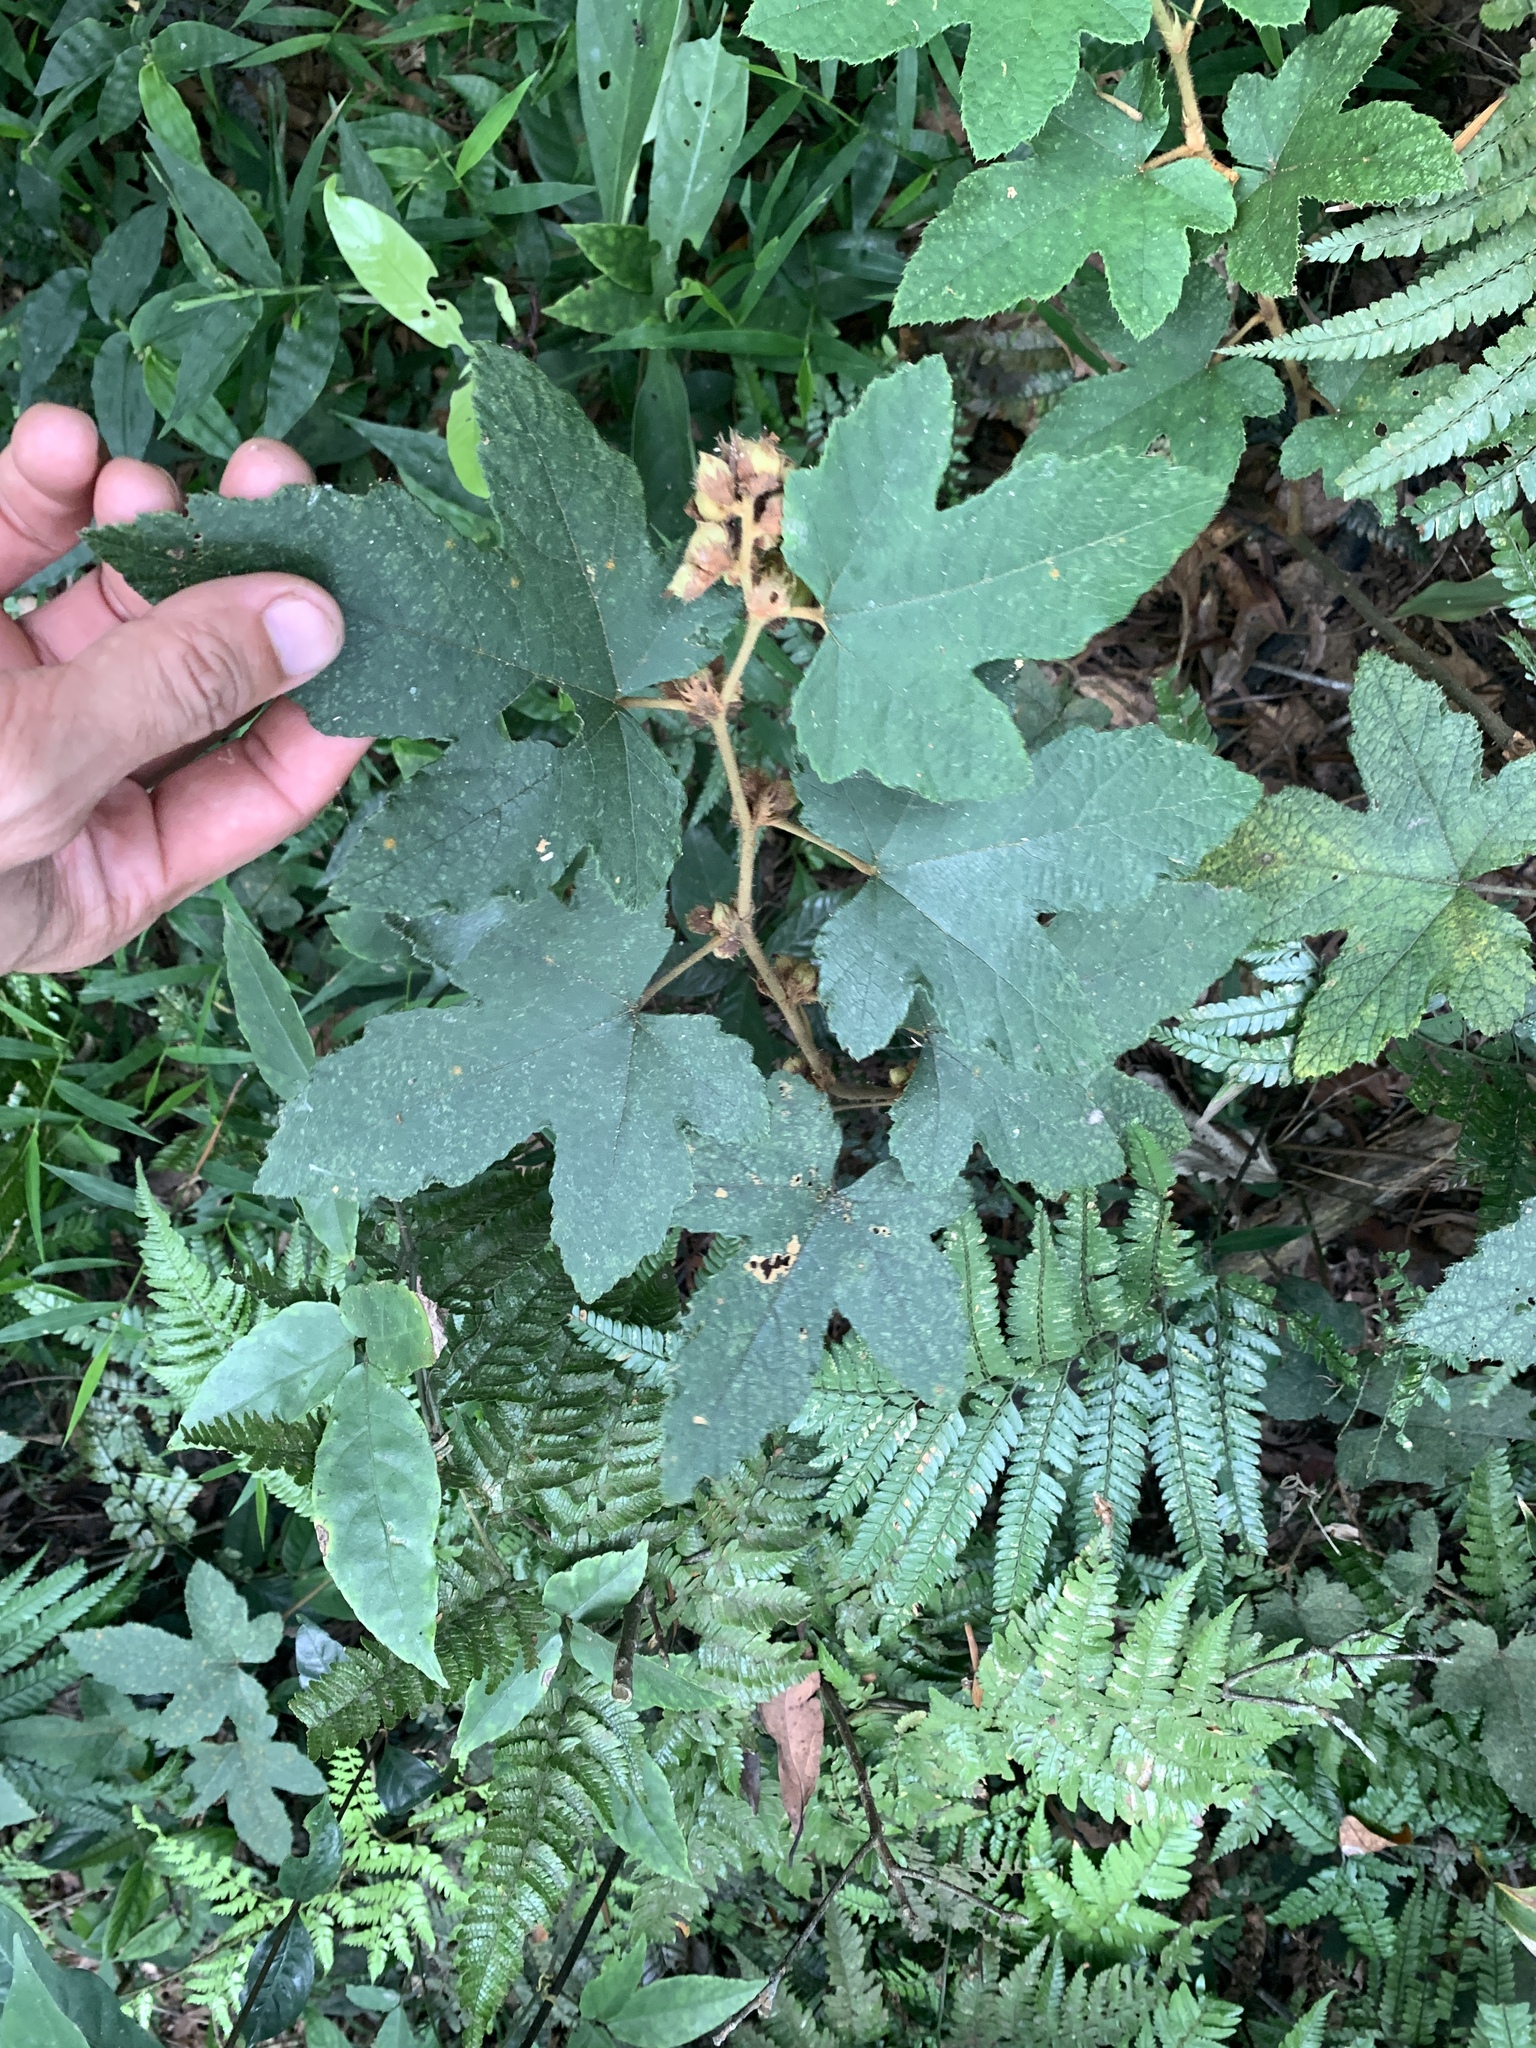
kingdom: Plantae
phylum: Tracheophyta
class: Magnoliopsida
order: Rosales
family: Rosaceae
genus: Rubus
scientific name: Rubus reflexus
